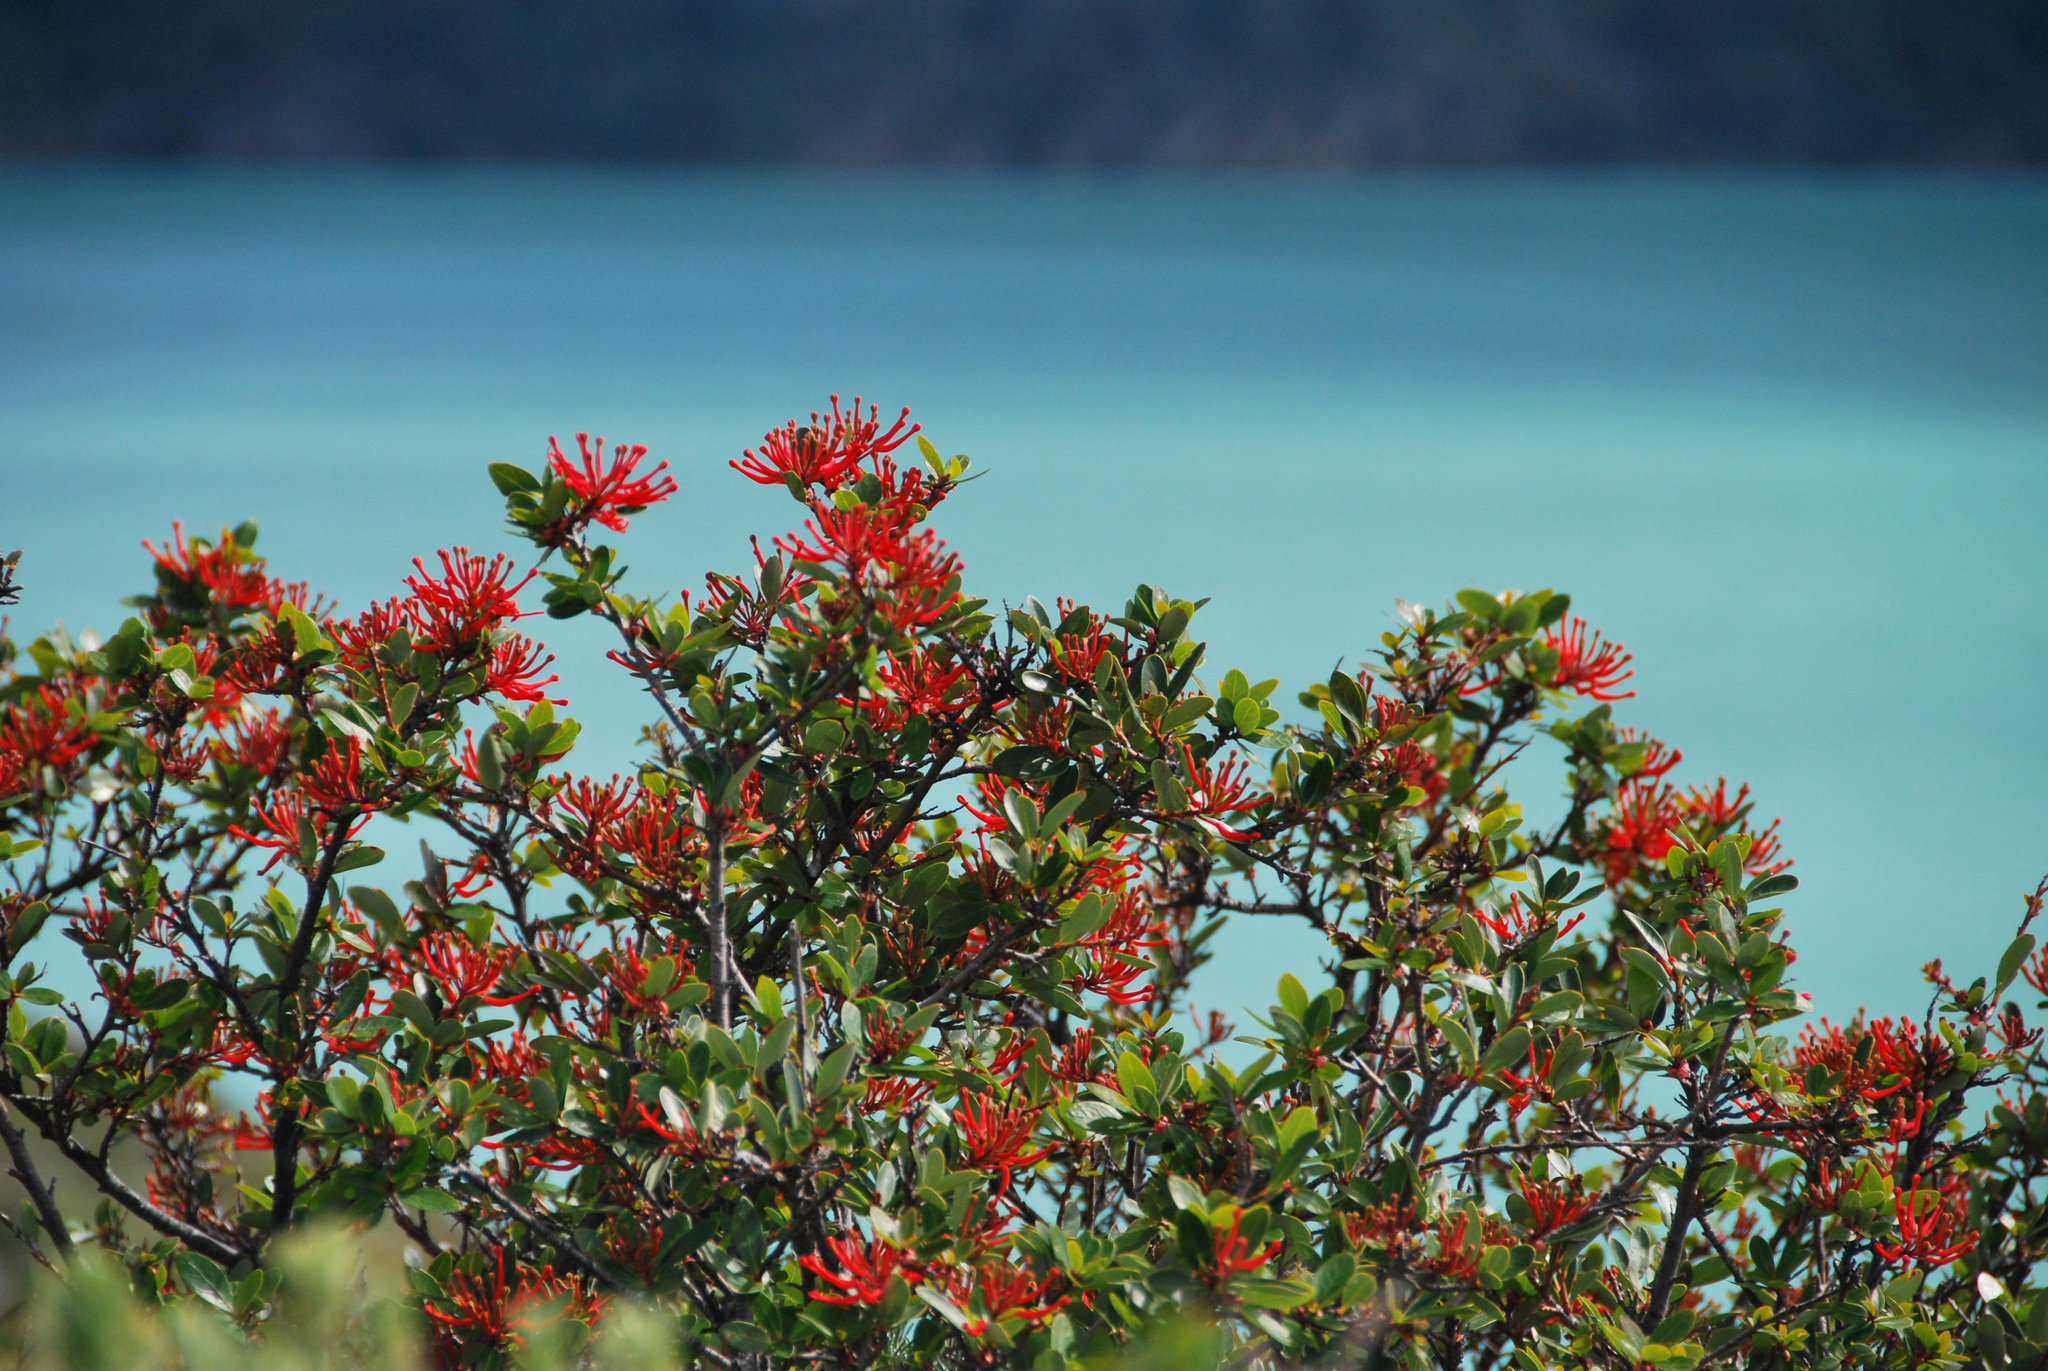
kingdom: Plantae
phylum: Tracheophyta
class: Magnoliopsida
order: Proteales
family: Proteaceae
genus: Embothrium
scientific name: Embothrium coccineum
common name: Chilean firebush
